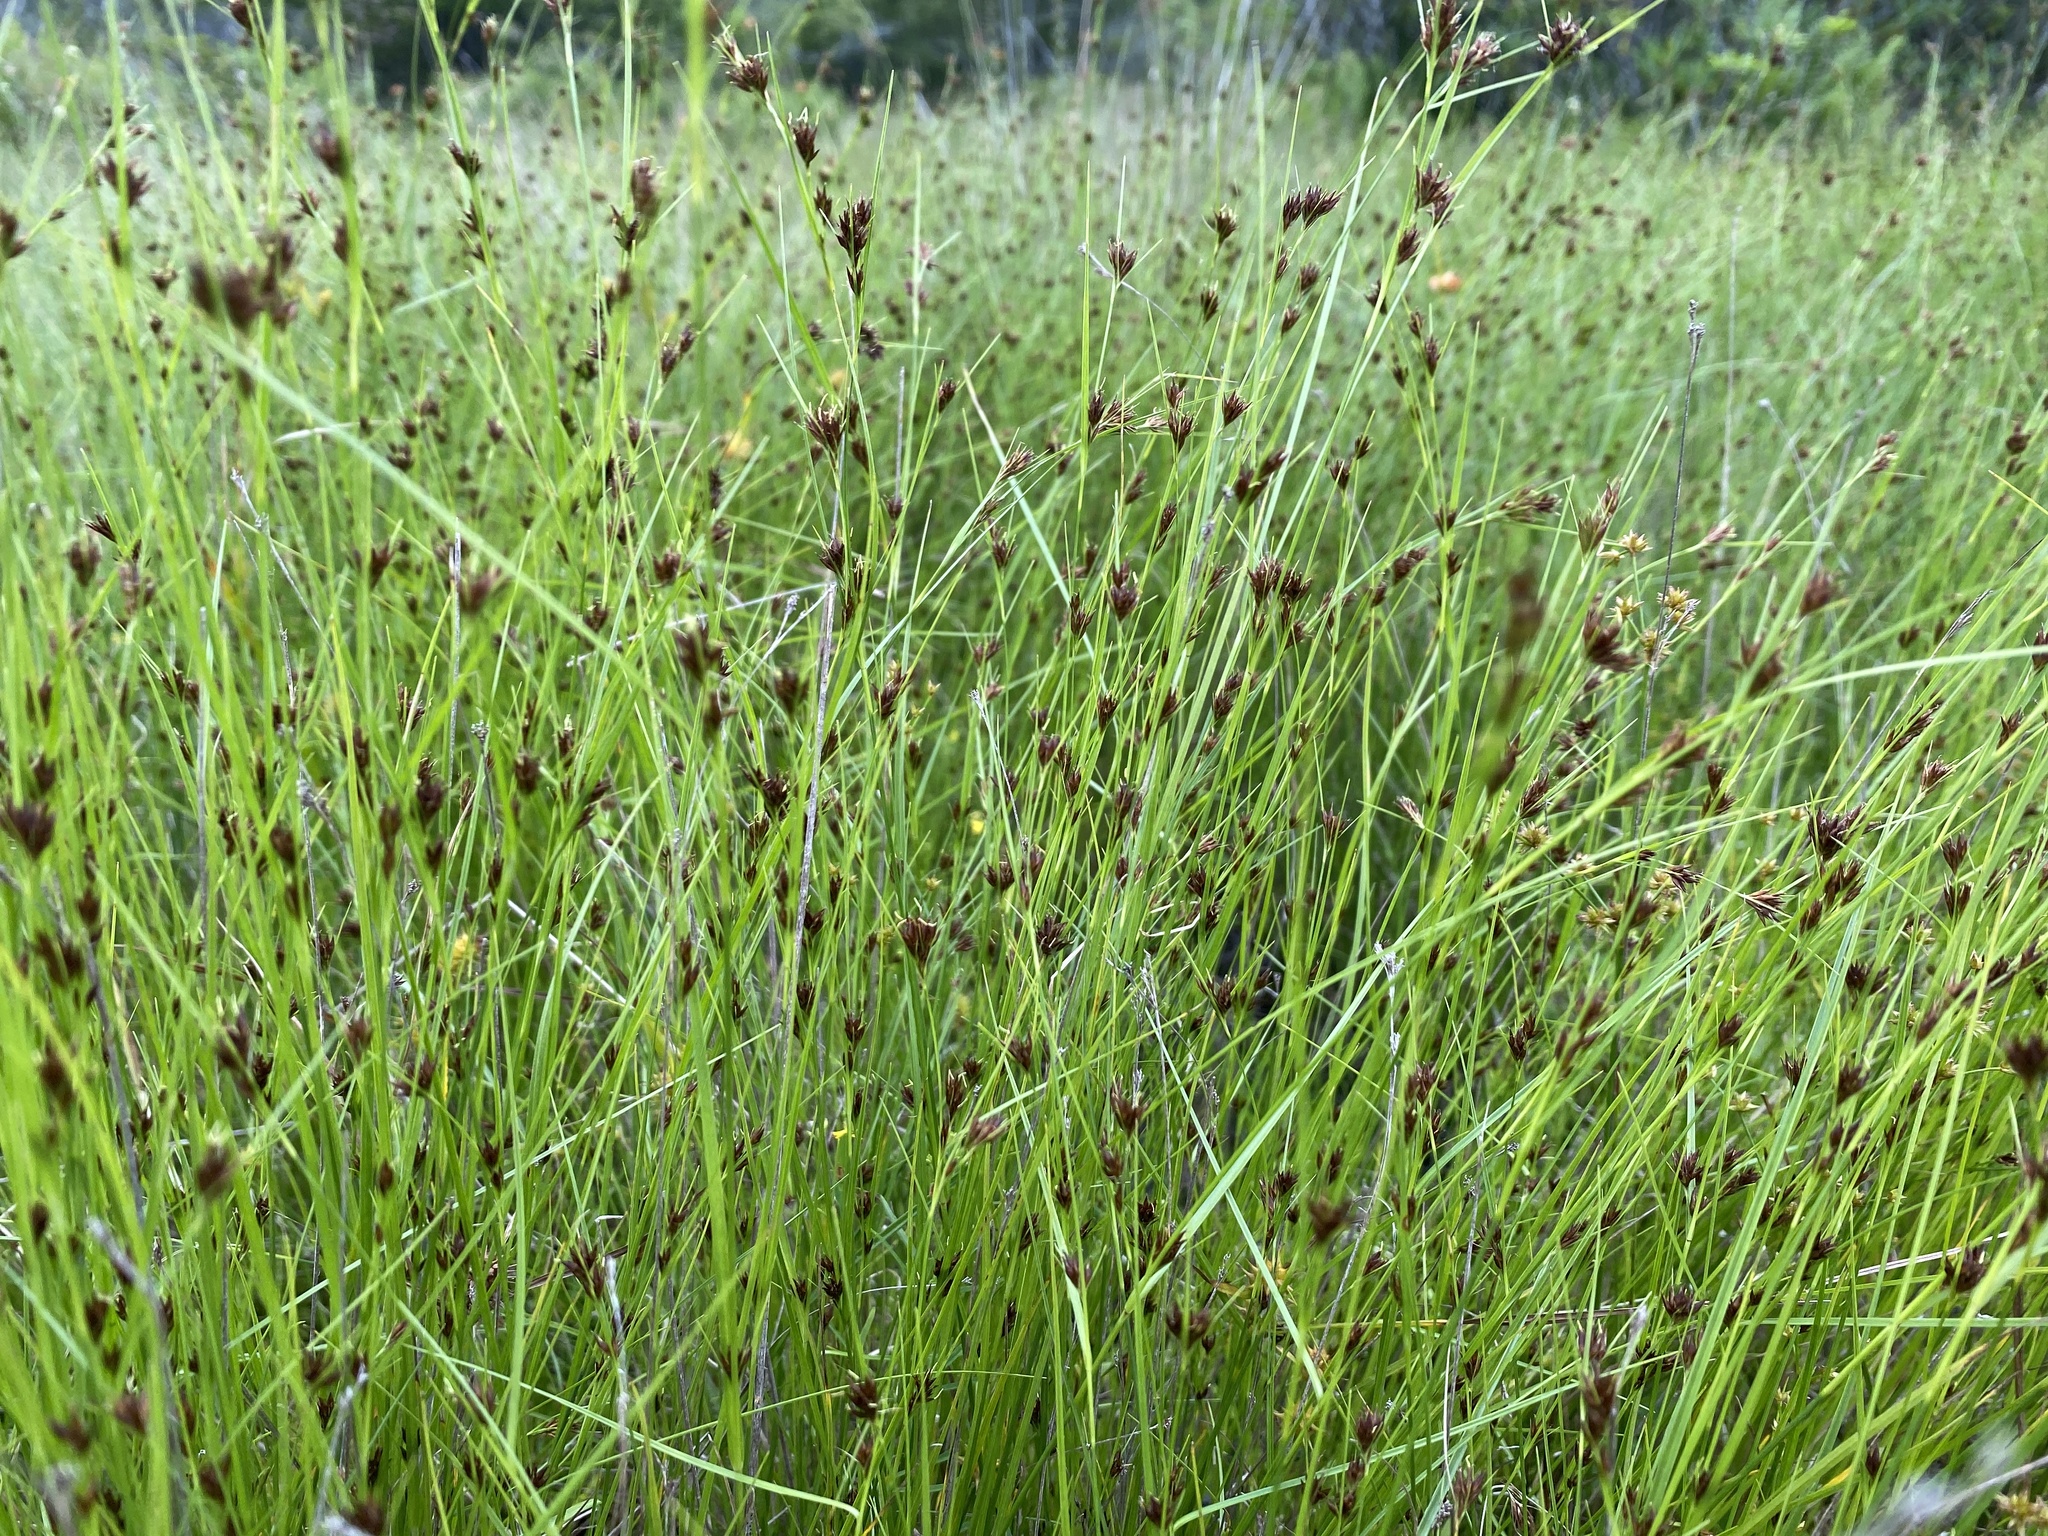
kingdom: Plantae
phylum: Tracheophyta
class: Liliopsida
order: Poales
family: Cyperaceae
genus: Rhynchospora
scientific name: Rhynchospora capitellata
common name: Brownish beaksedge
